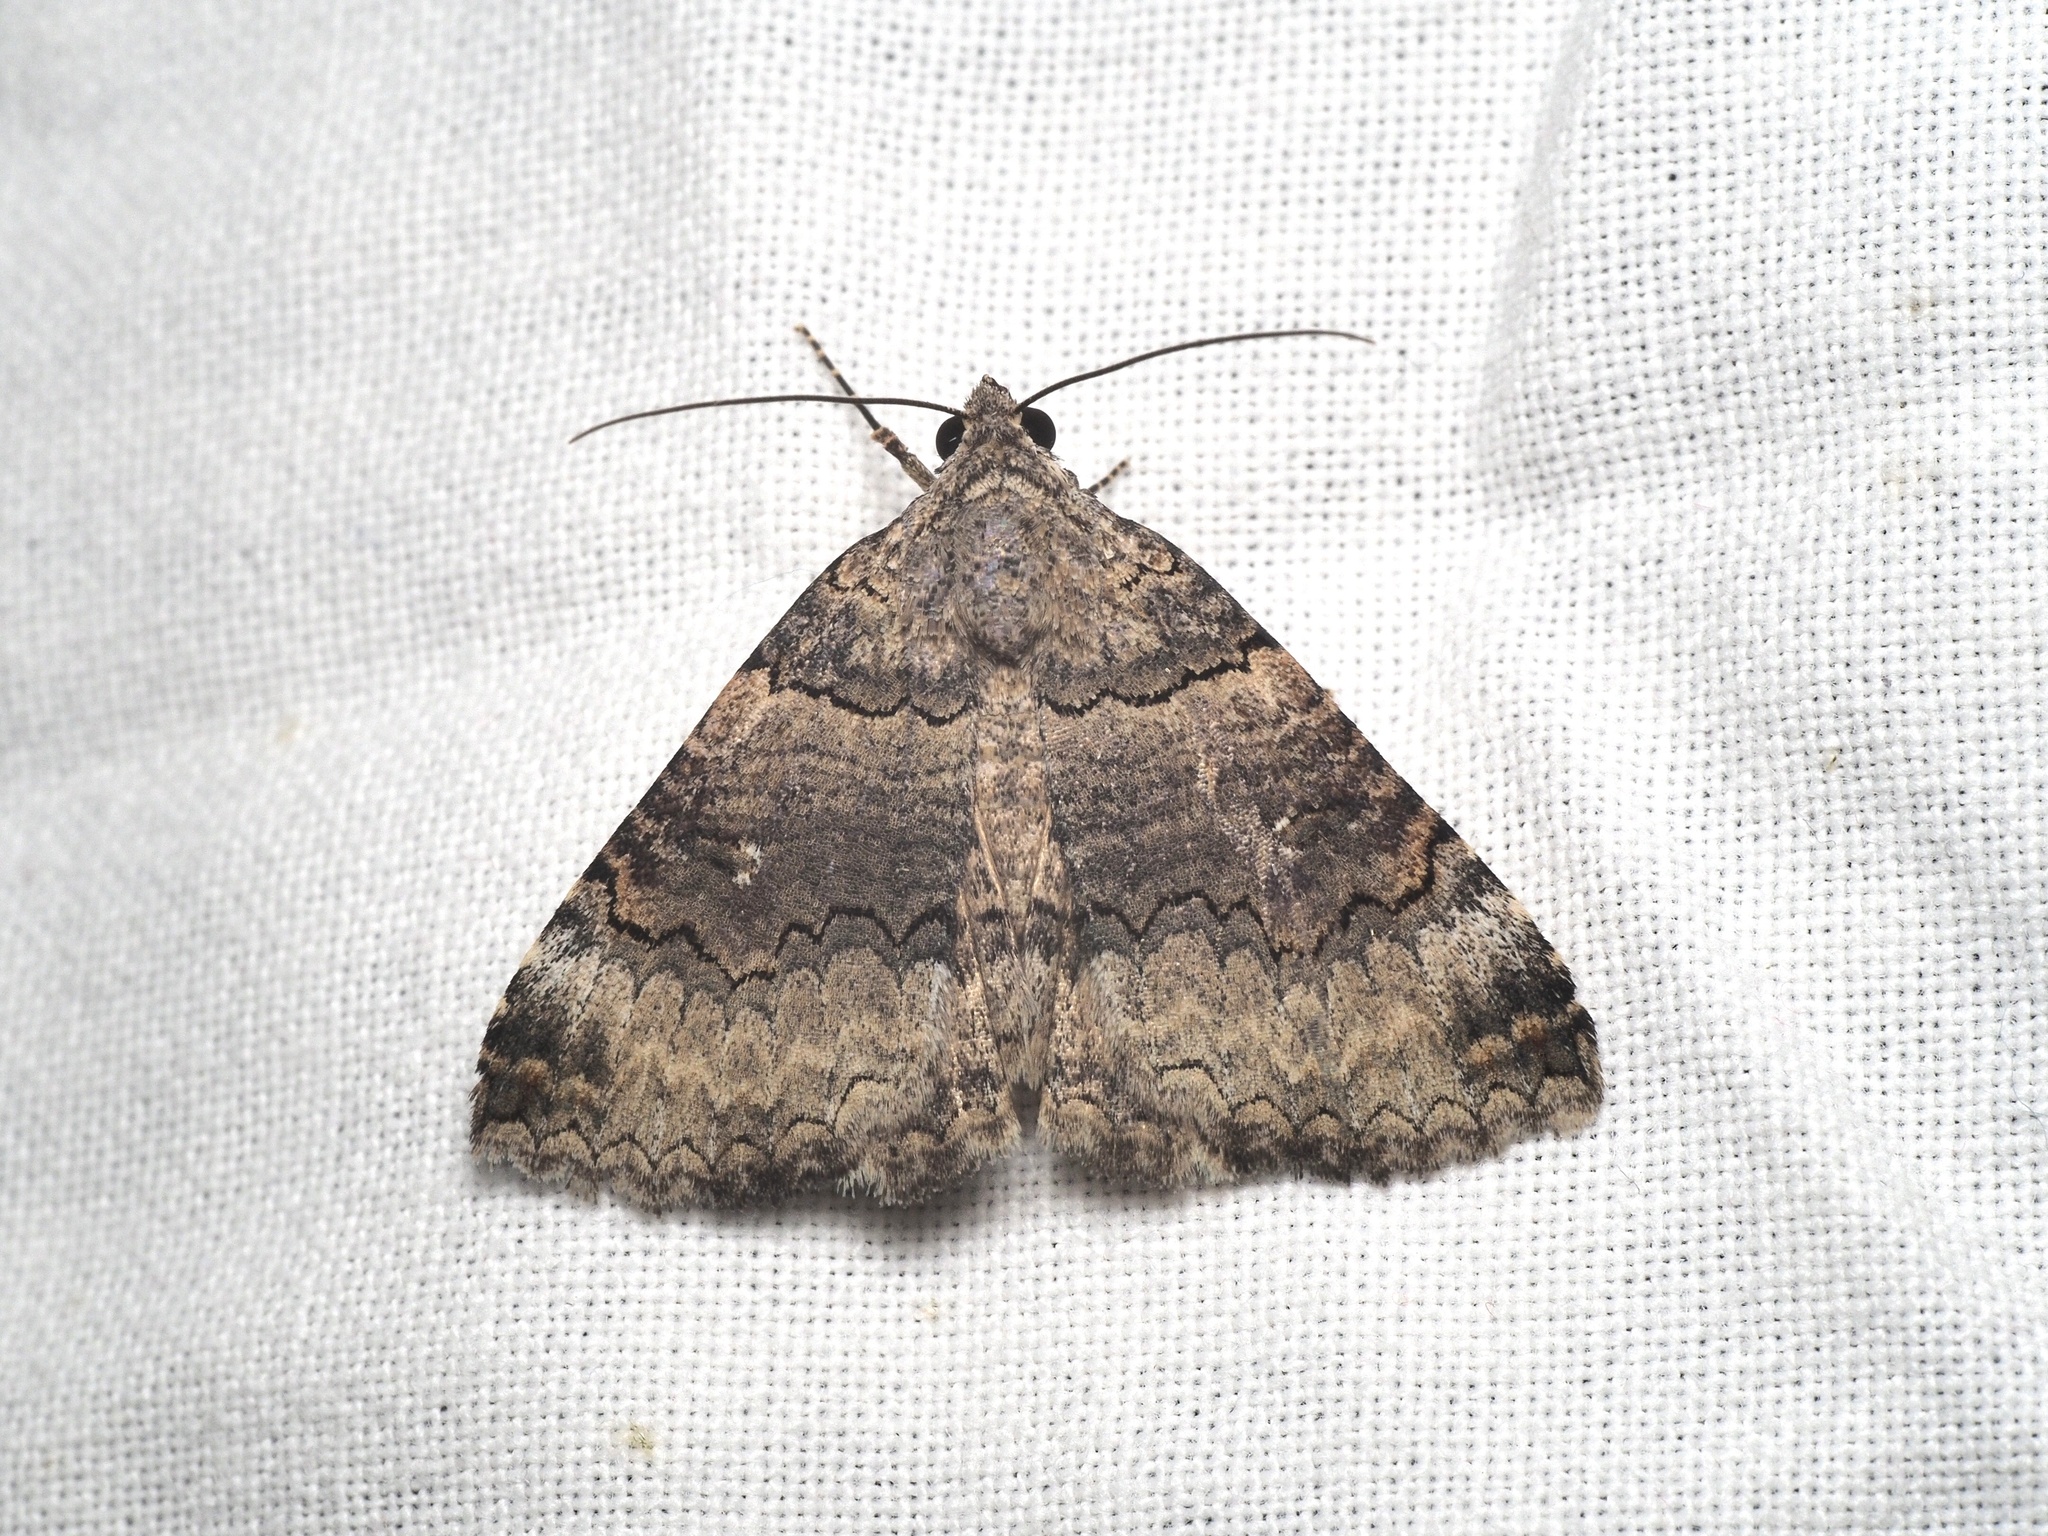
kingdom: Animalia
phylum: Arthropoda
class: Insecta
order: Lepidoptera
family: Erebidae
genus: Pericyma
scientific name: Pericyma atrifusa
